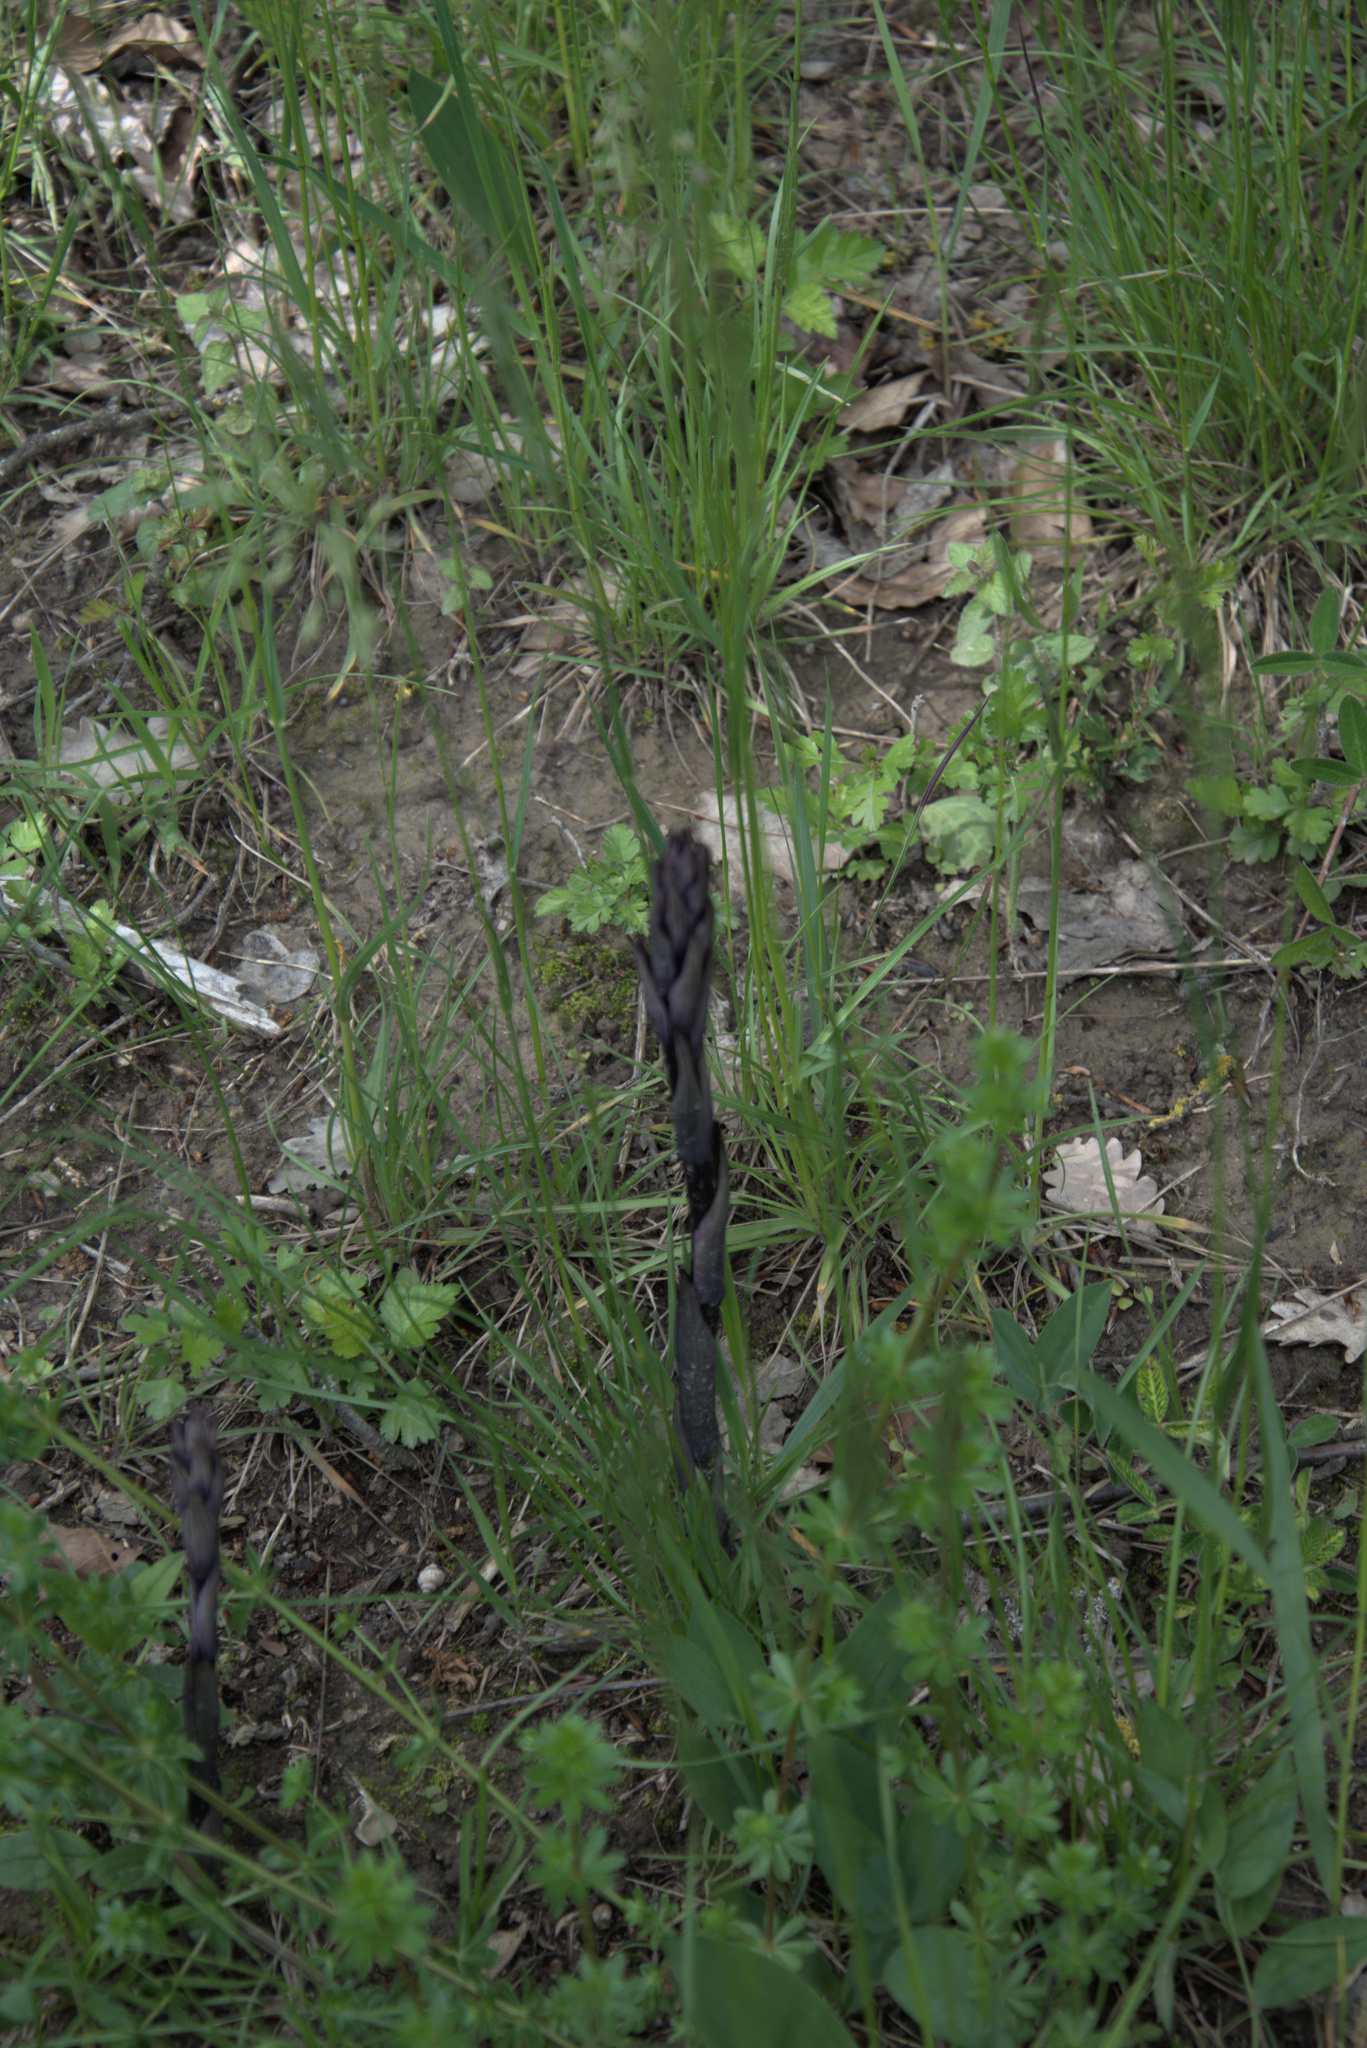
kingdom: Plantae
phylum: Tracheophyta
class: Liliopsida
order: Asparagales
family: Orchidaceae
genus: Limodorum
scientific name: Limodorum abortivum
